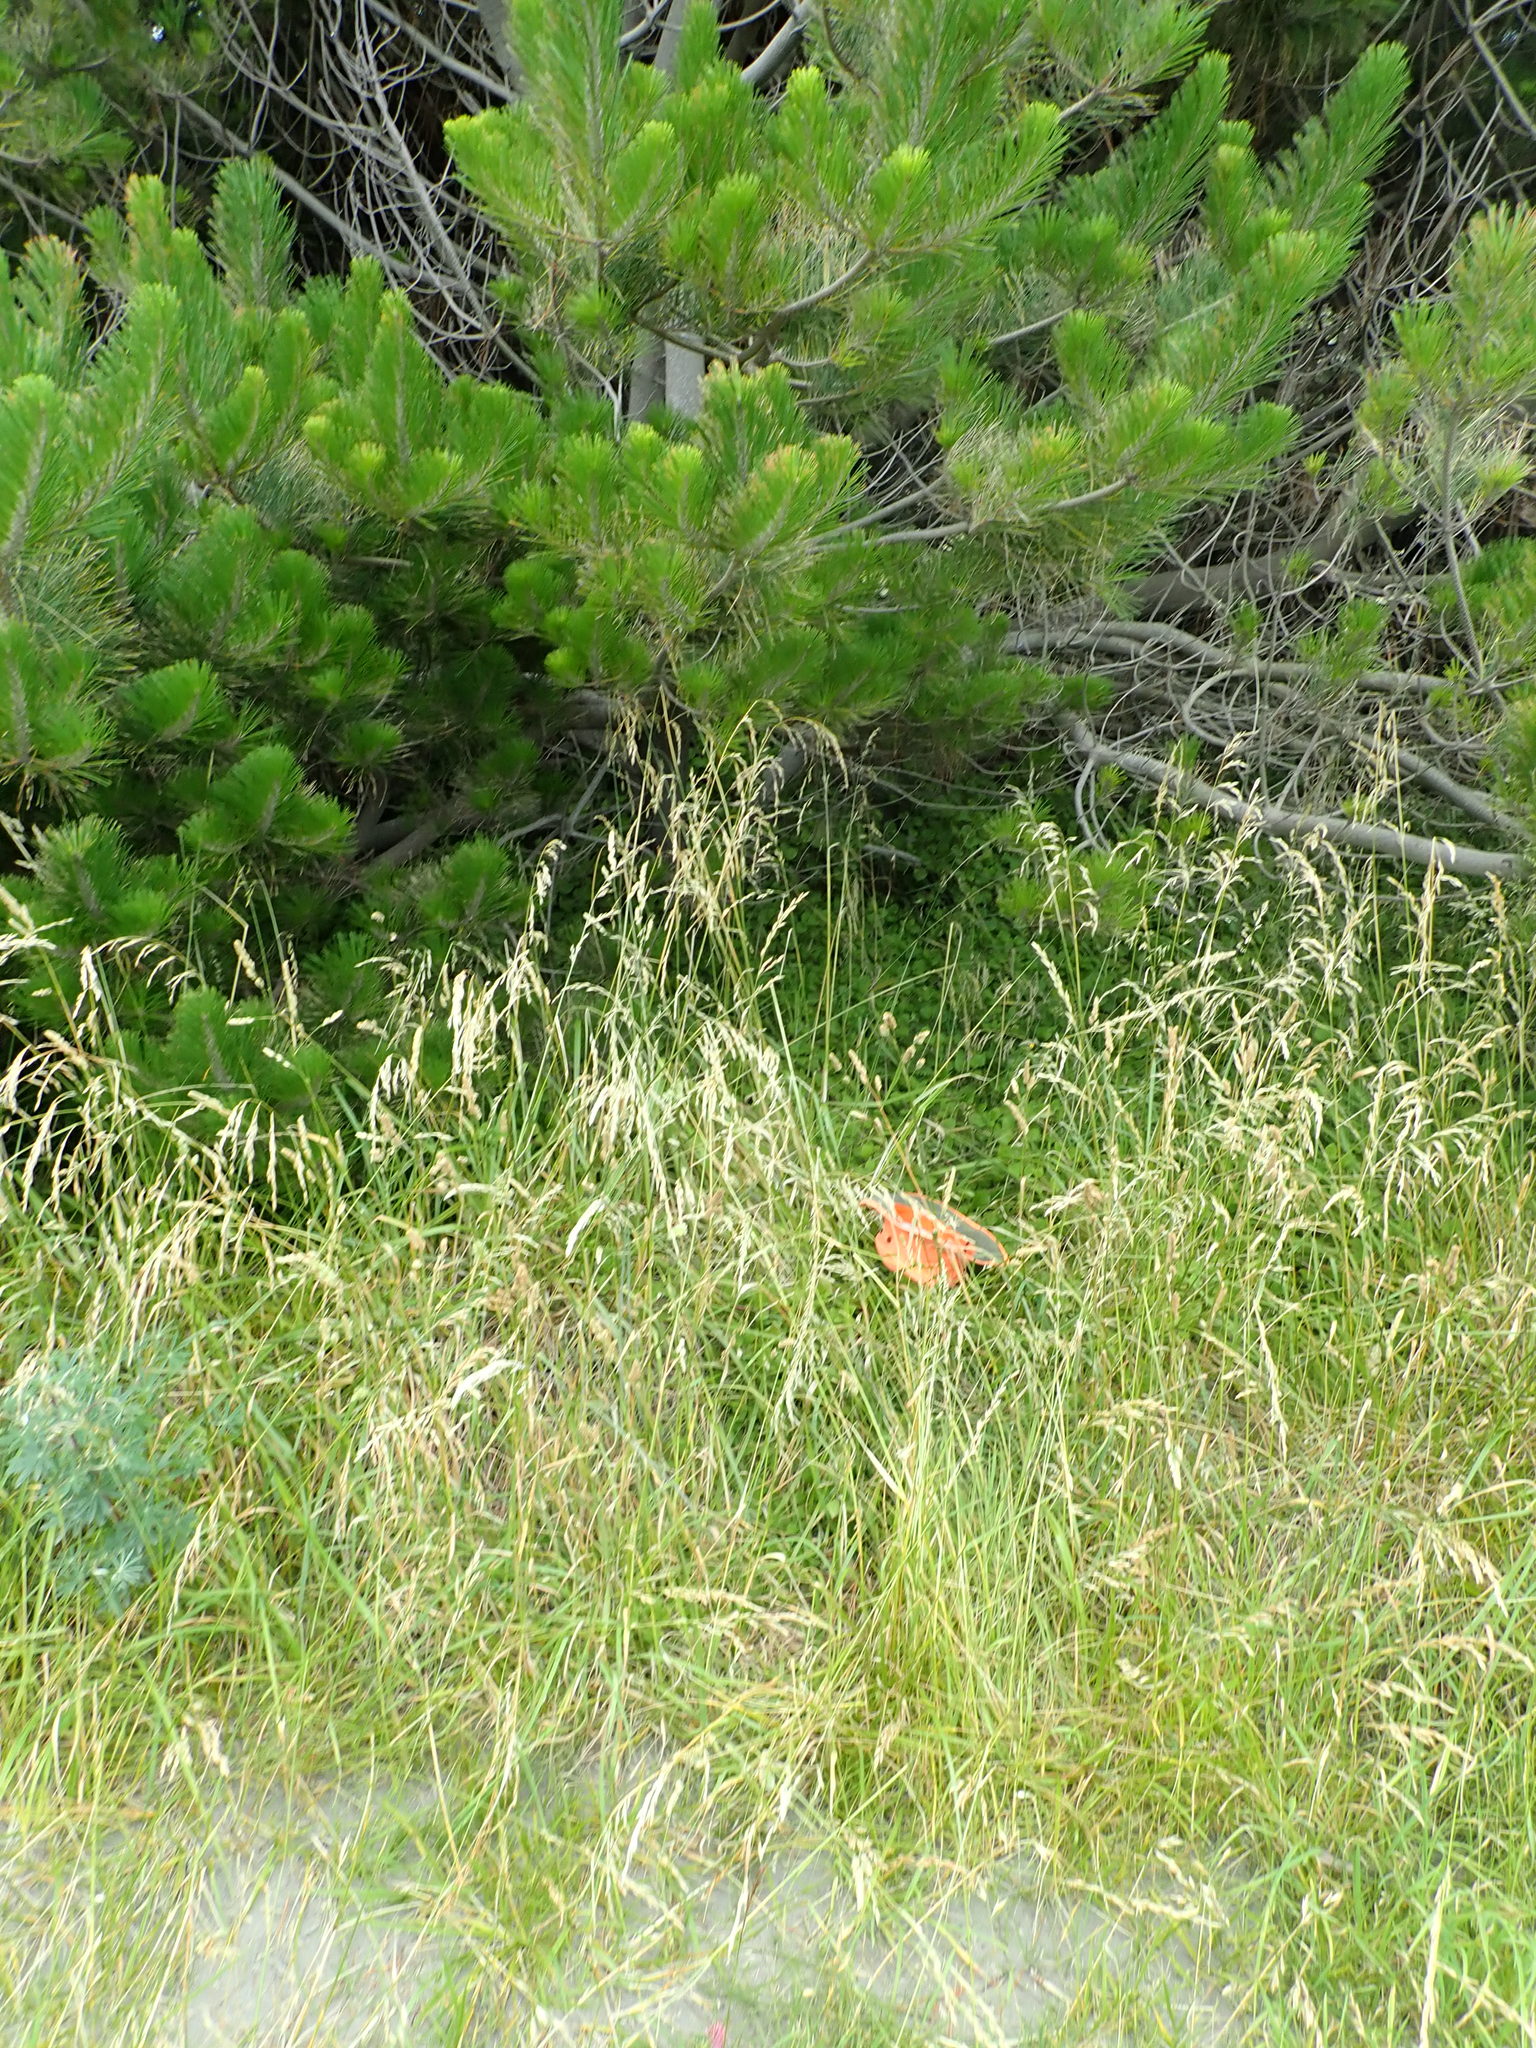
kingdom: Plantae
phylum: Tracheophyta
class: Magnoliopsida
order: Caryophyllales
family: Aizoaceae
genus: Tetragonia
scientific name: Tetragonia implexicoma
